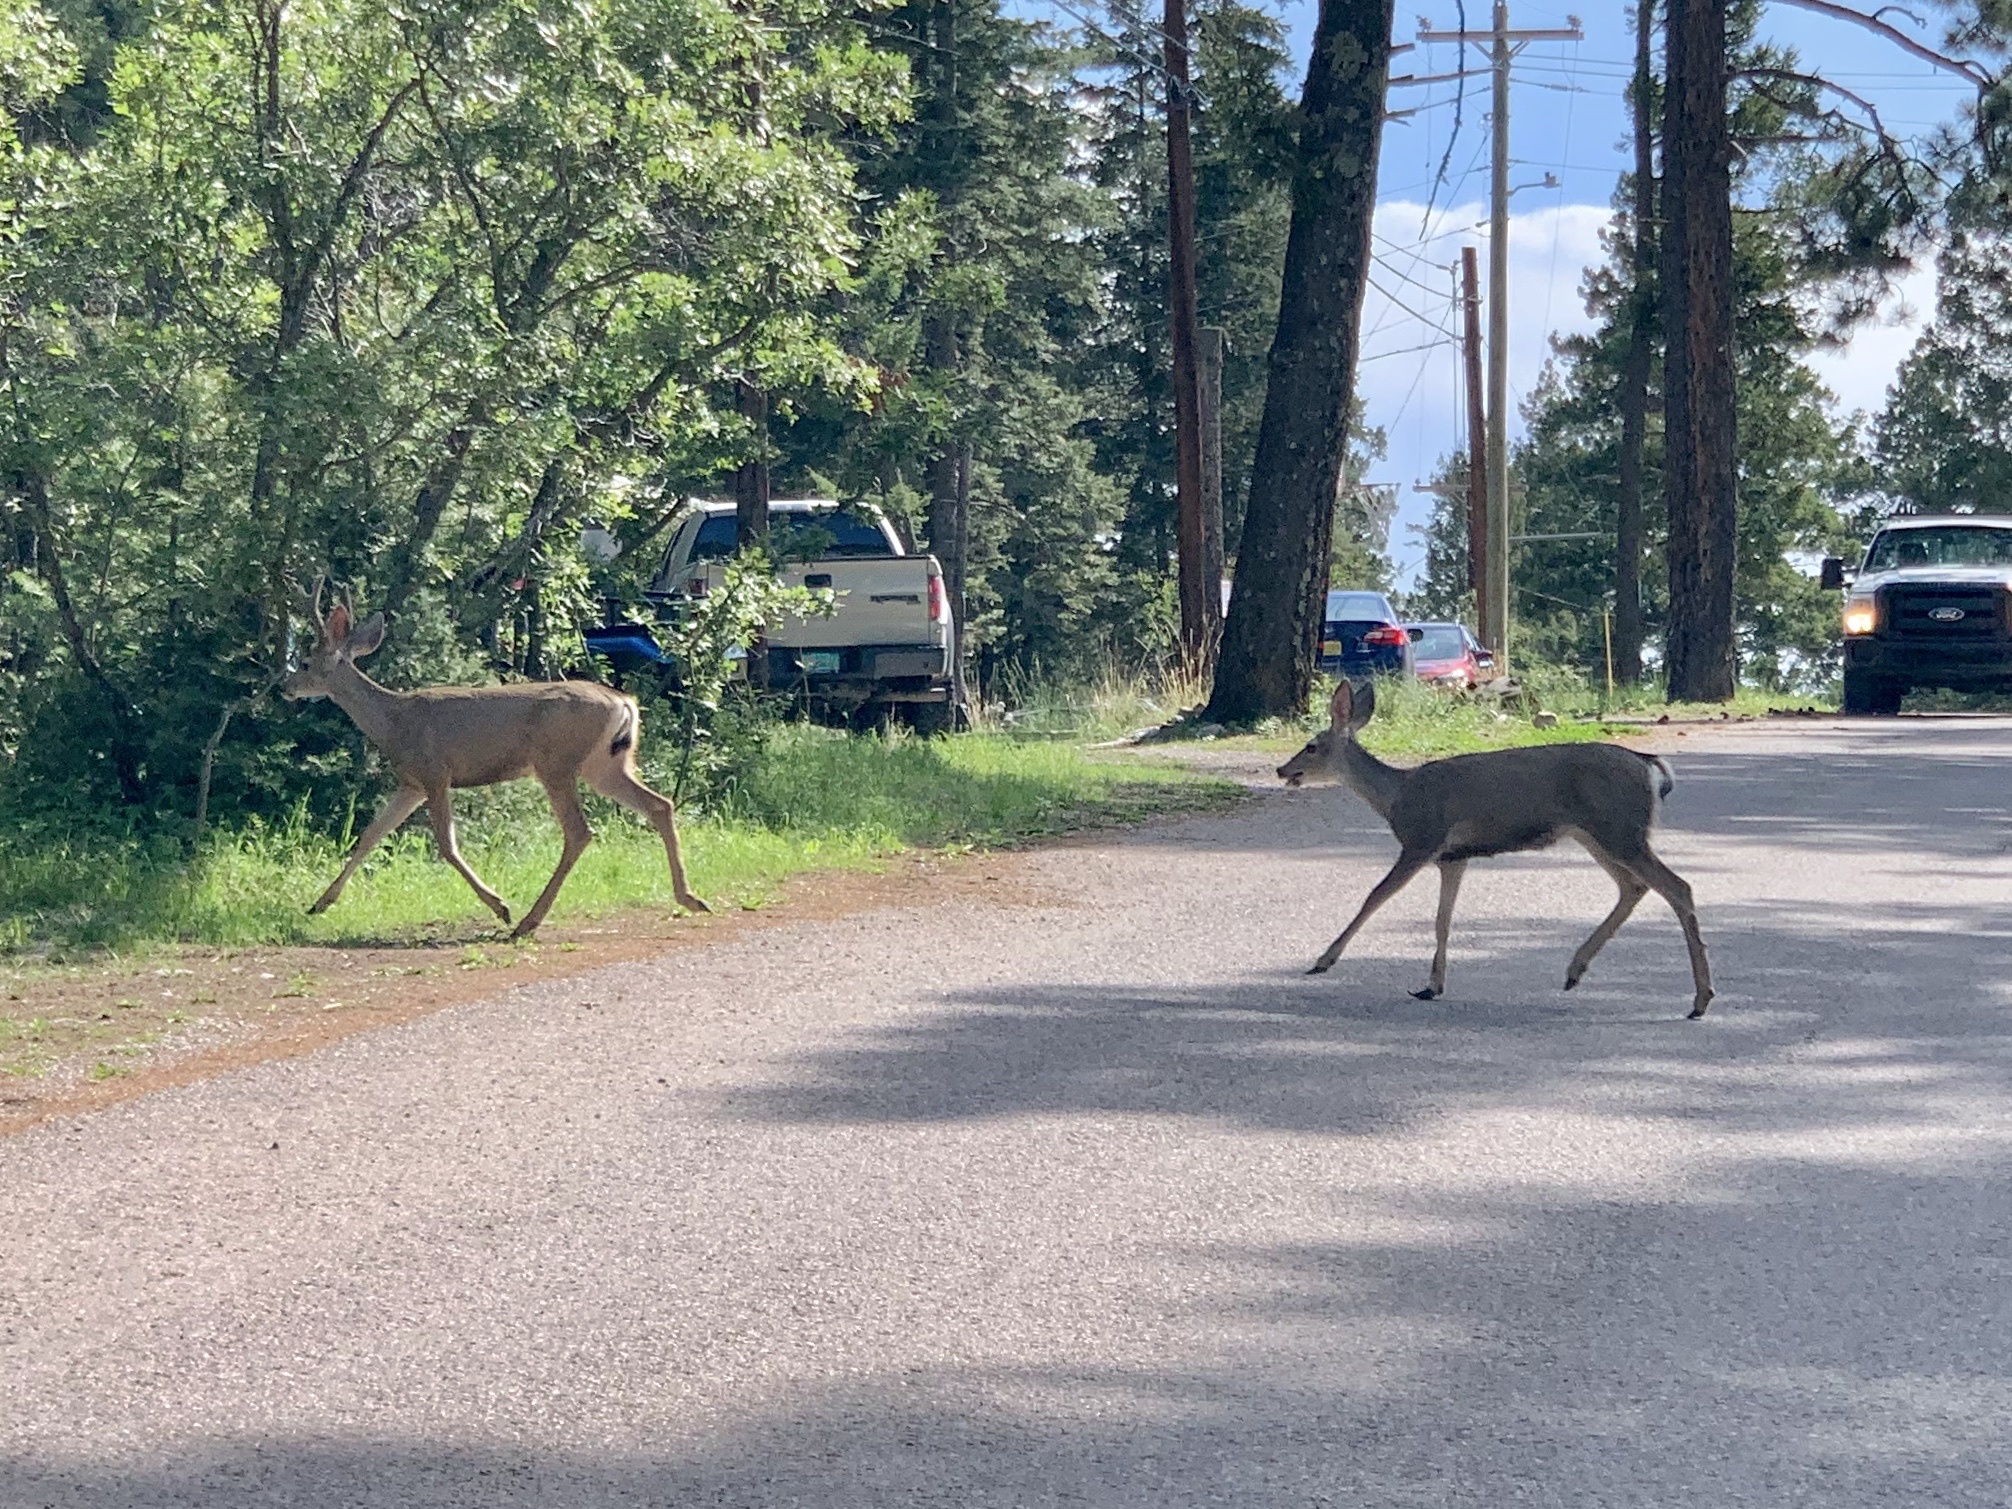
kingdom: Animalia
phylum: Chordata
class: Mammalia
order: Artiodactyla
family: Cervidae
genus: Odocoileus
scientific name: Odocoileus hemionus
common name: Mule deer
